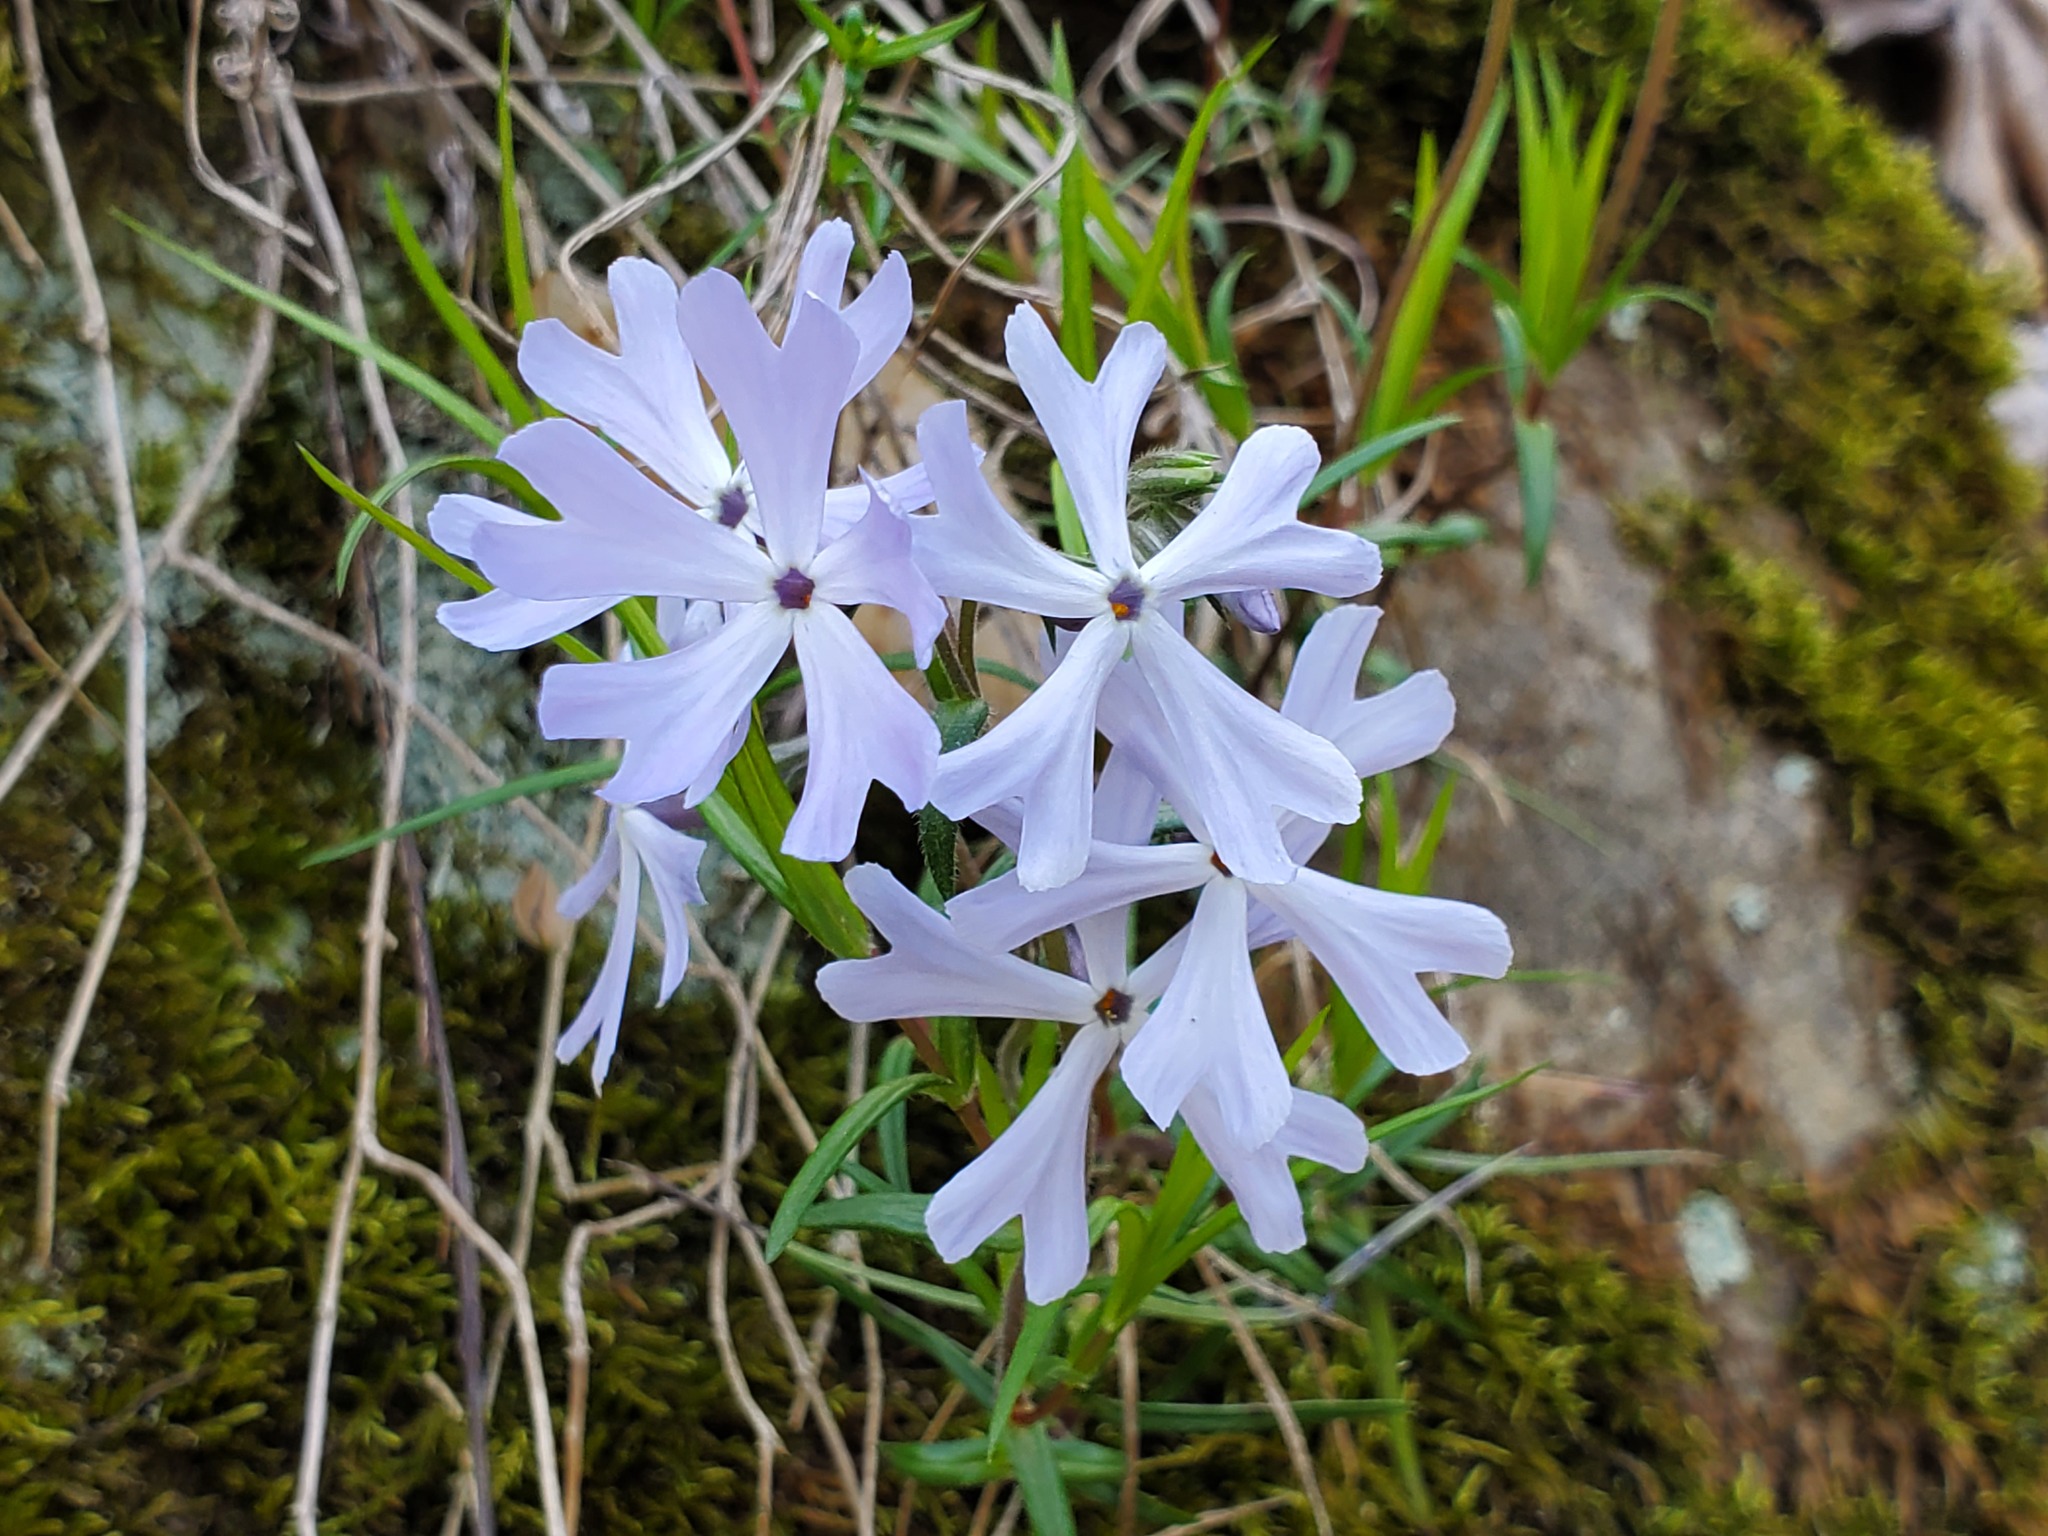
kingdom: Plantae
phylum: Tracheophyta
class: Magnoliopsida
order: Ericales
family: Polemoniaceae
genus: Phlox
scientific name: Phlox bifida
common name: Sand phlox
